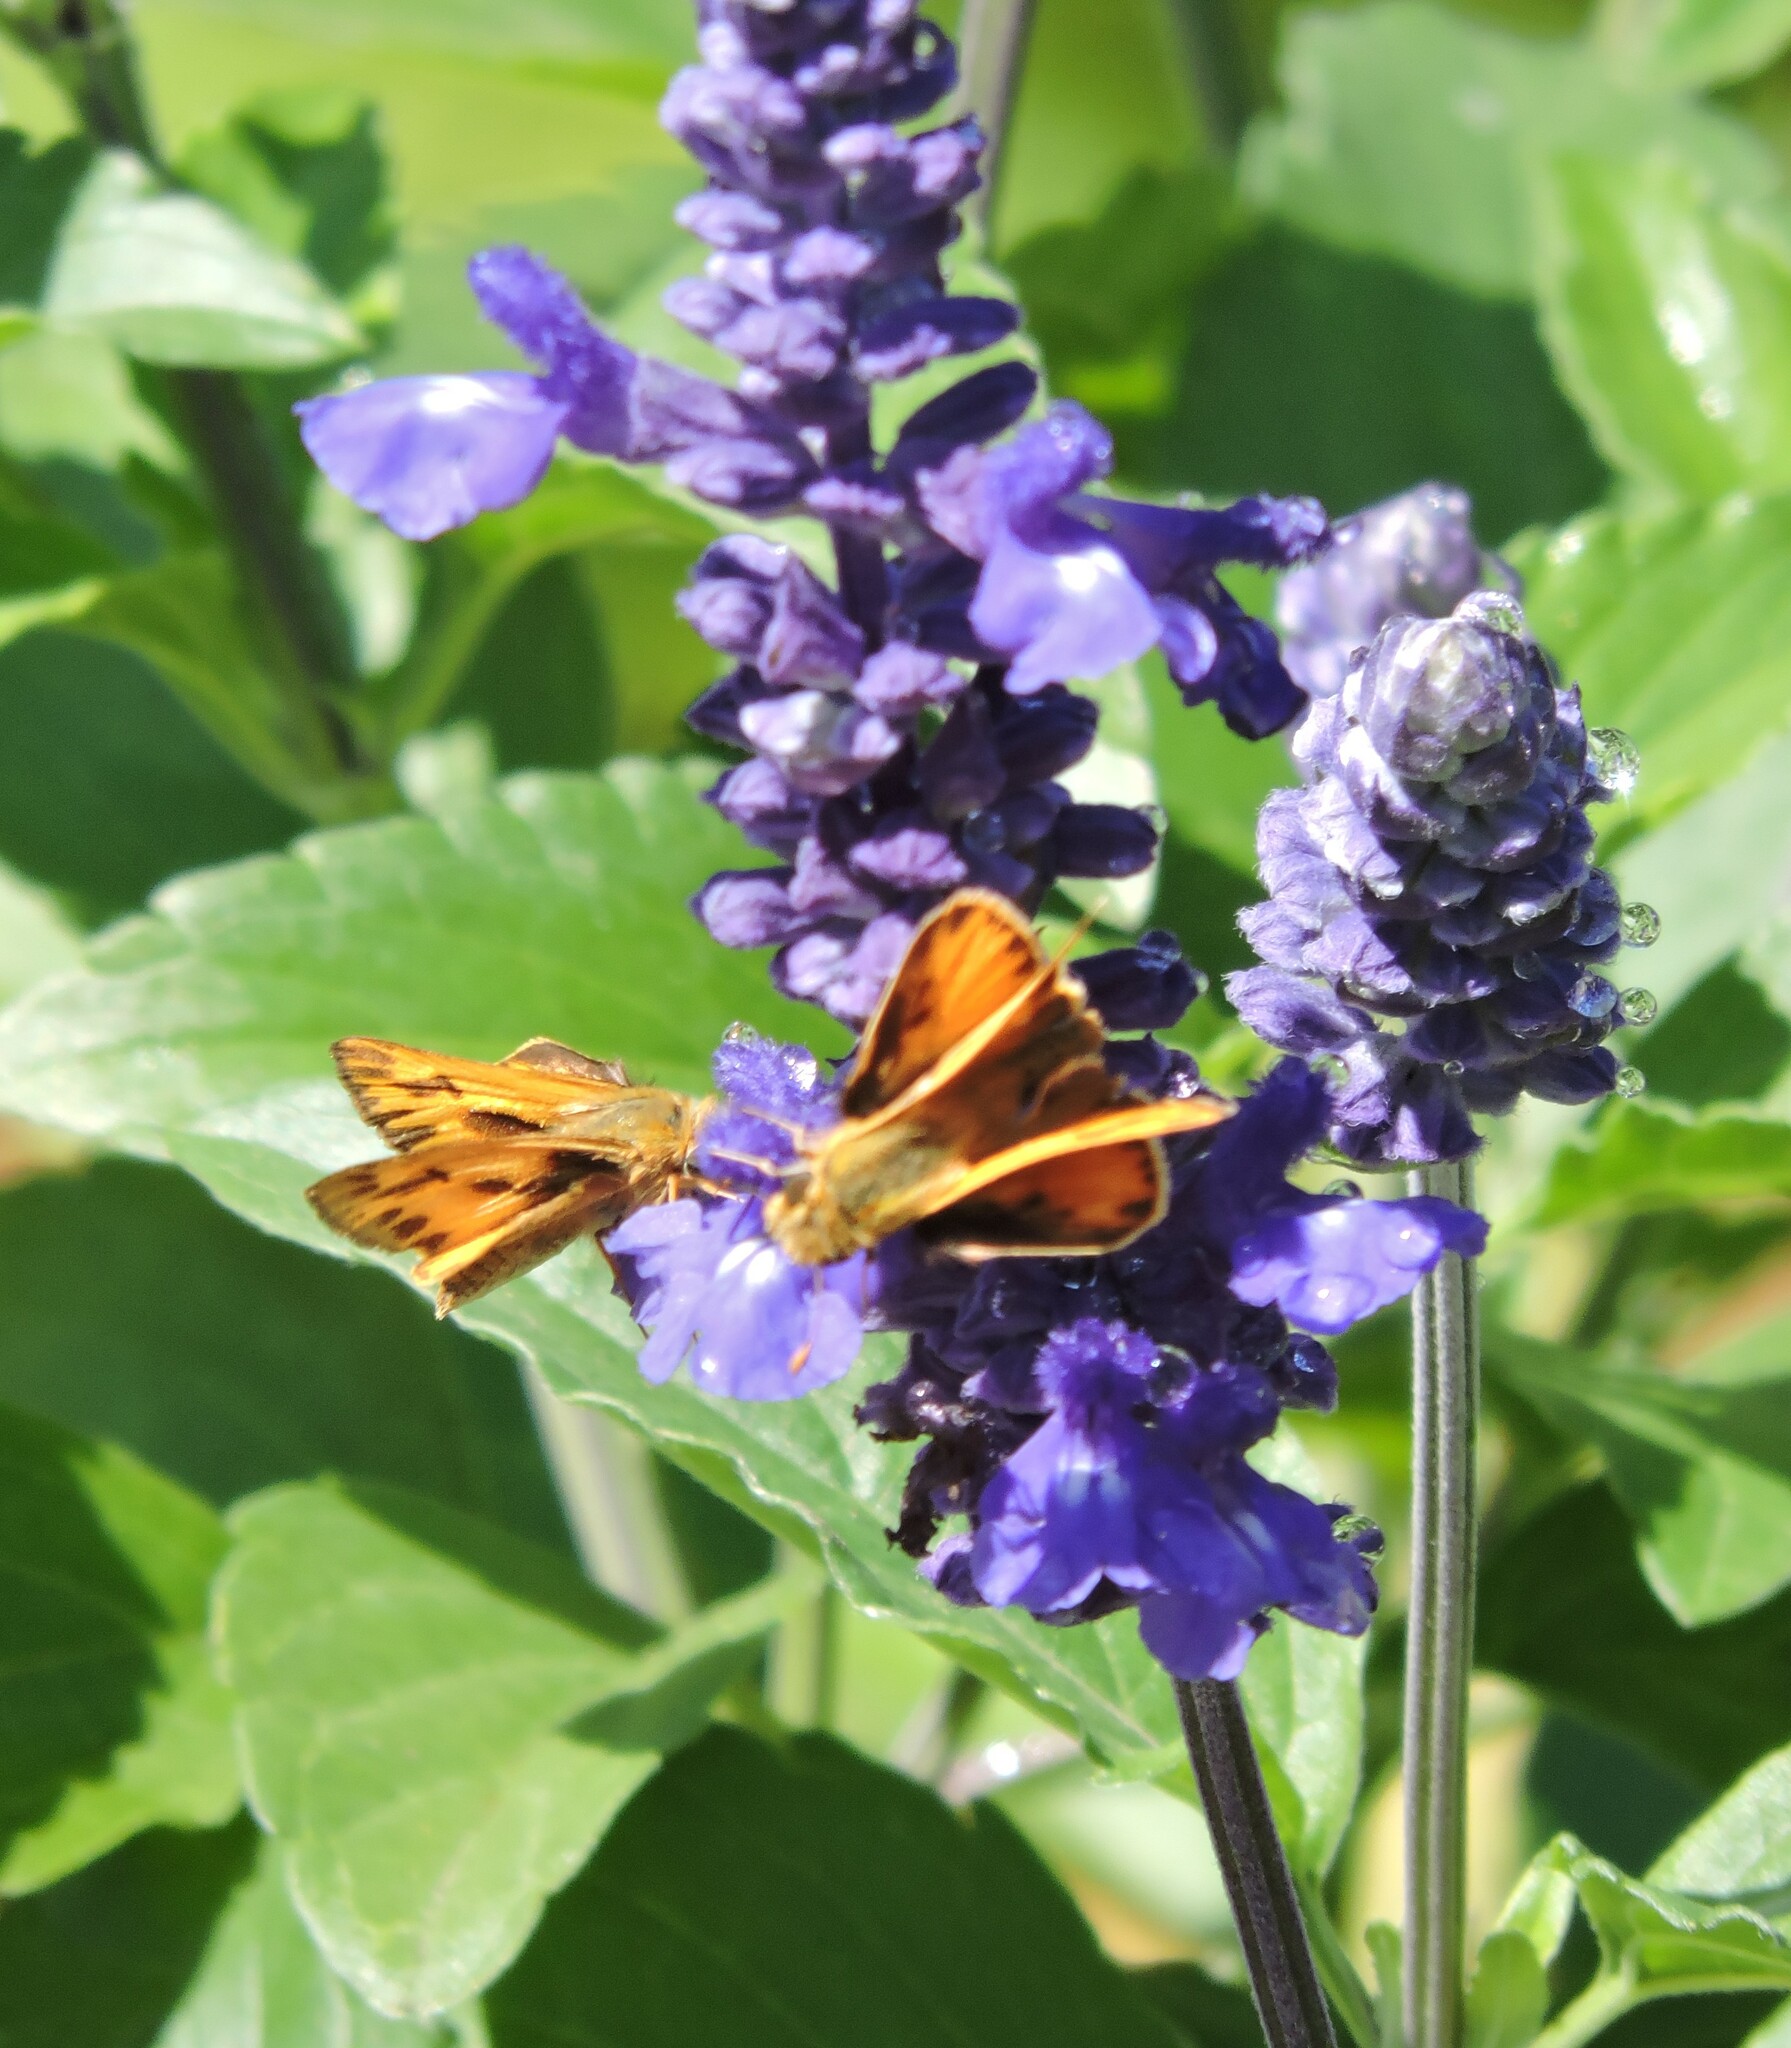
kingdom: Animalia
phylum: Arthropoda
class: Insecta
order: Lepidoptera
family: Hesperiidae
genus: Hylephila
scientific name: Hylephila phyleus
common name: Fiery skipper
